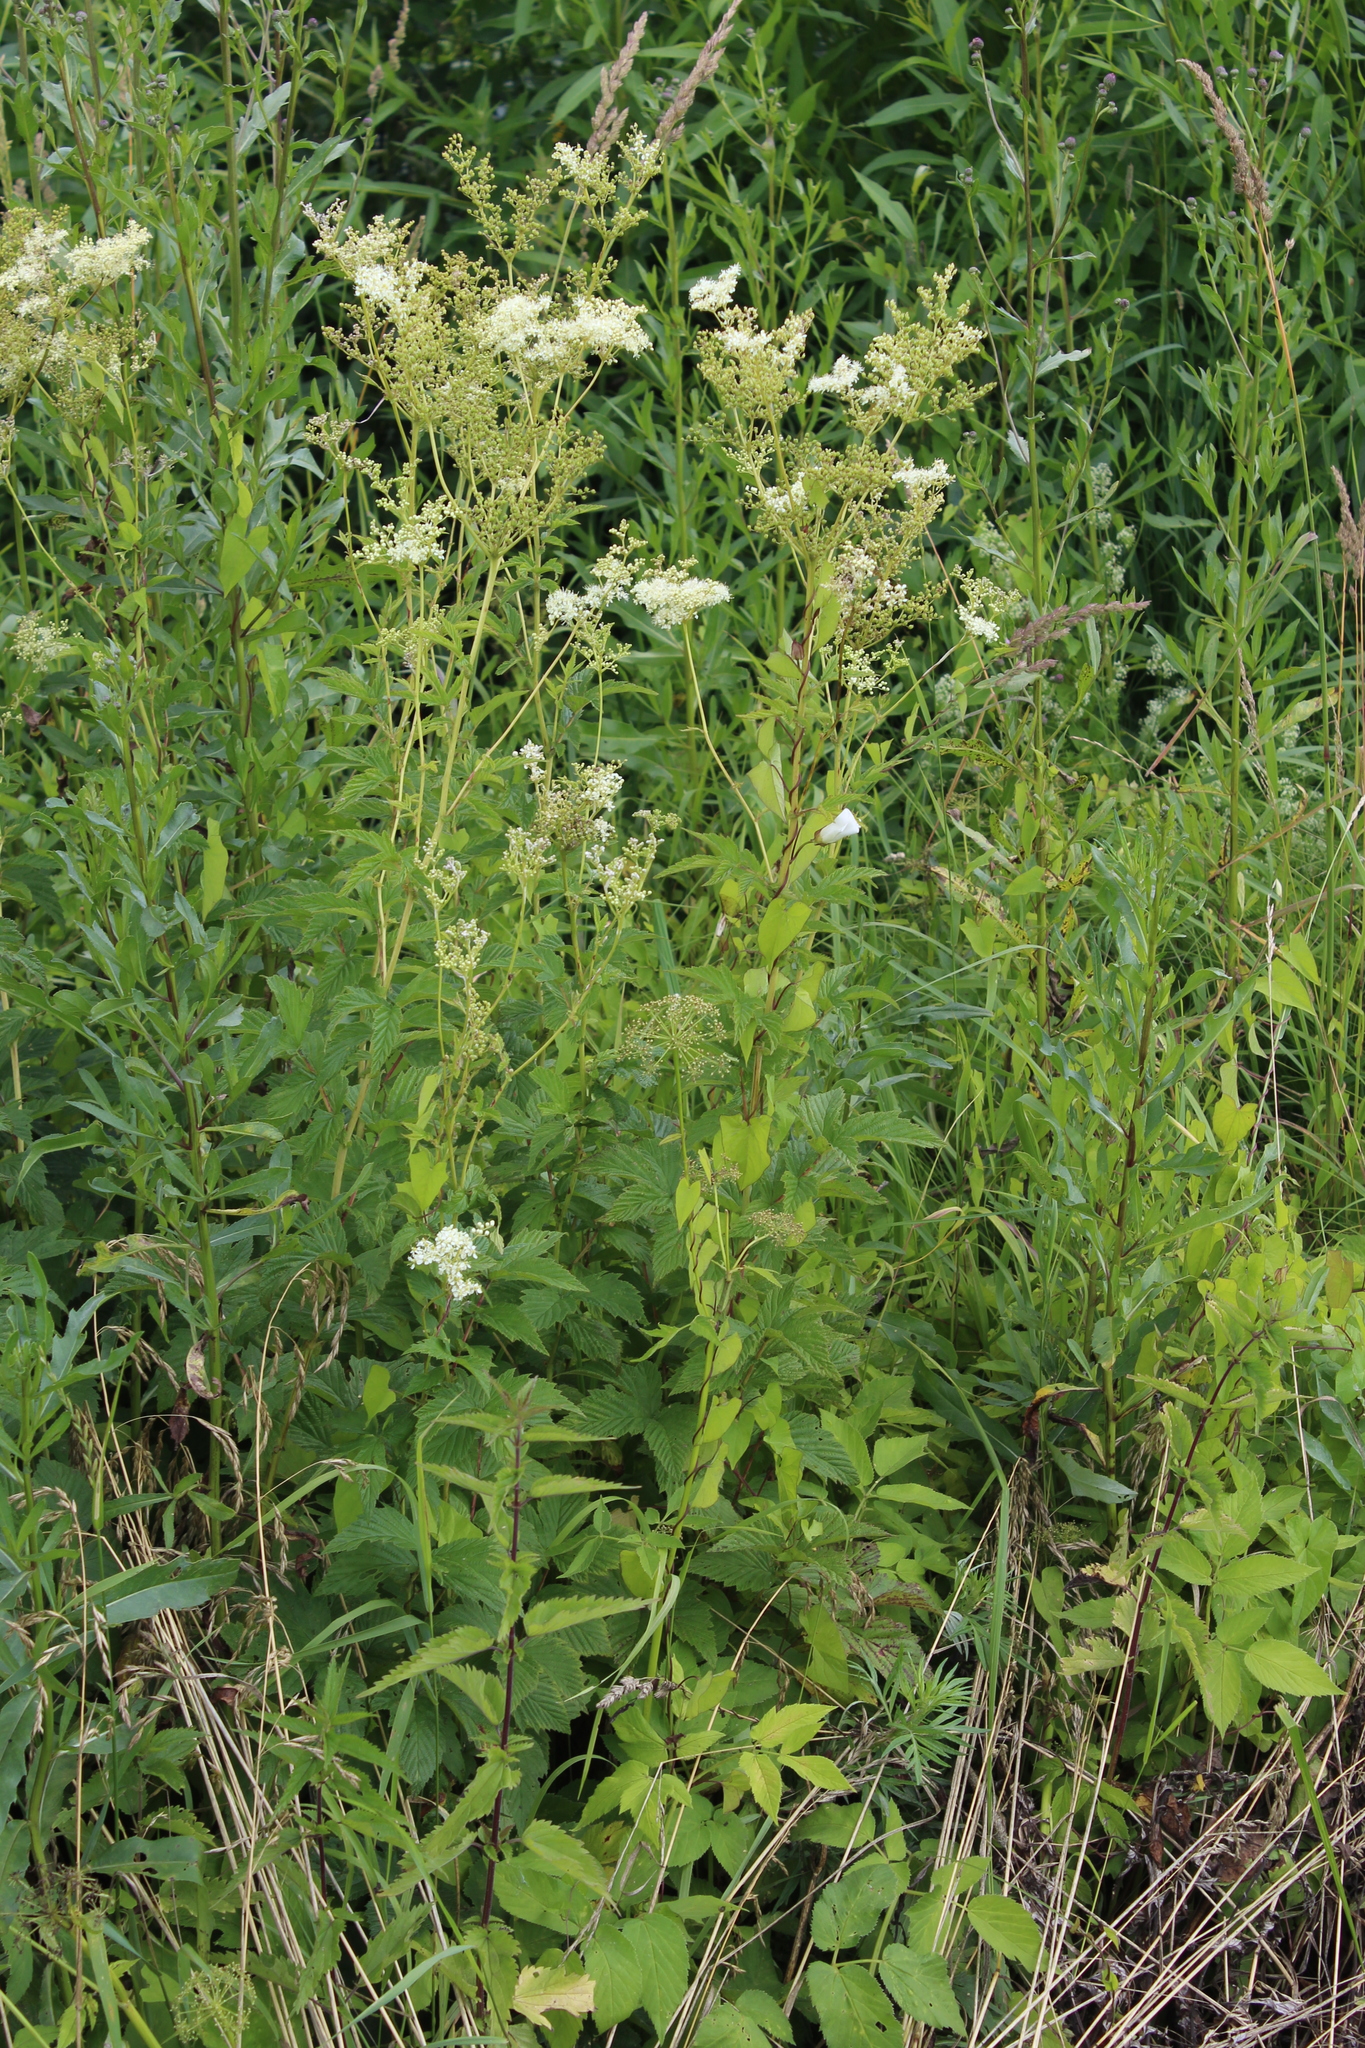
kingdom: Plantae
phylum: Tracheophyta
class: Magnoliopsida
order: Rosales
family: Rosaceae
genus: Filipendula
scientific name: Filipendula ulmaria
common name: Meadowsweet
